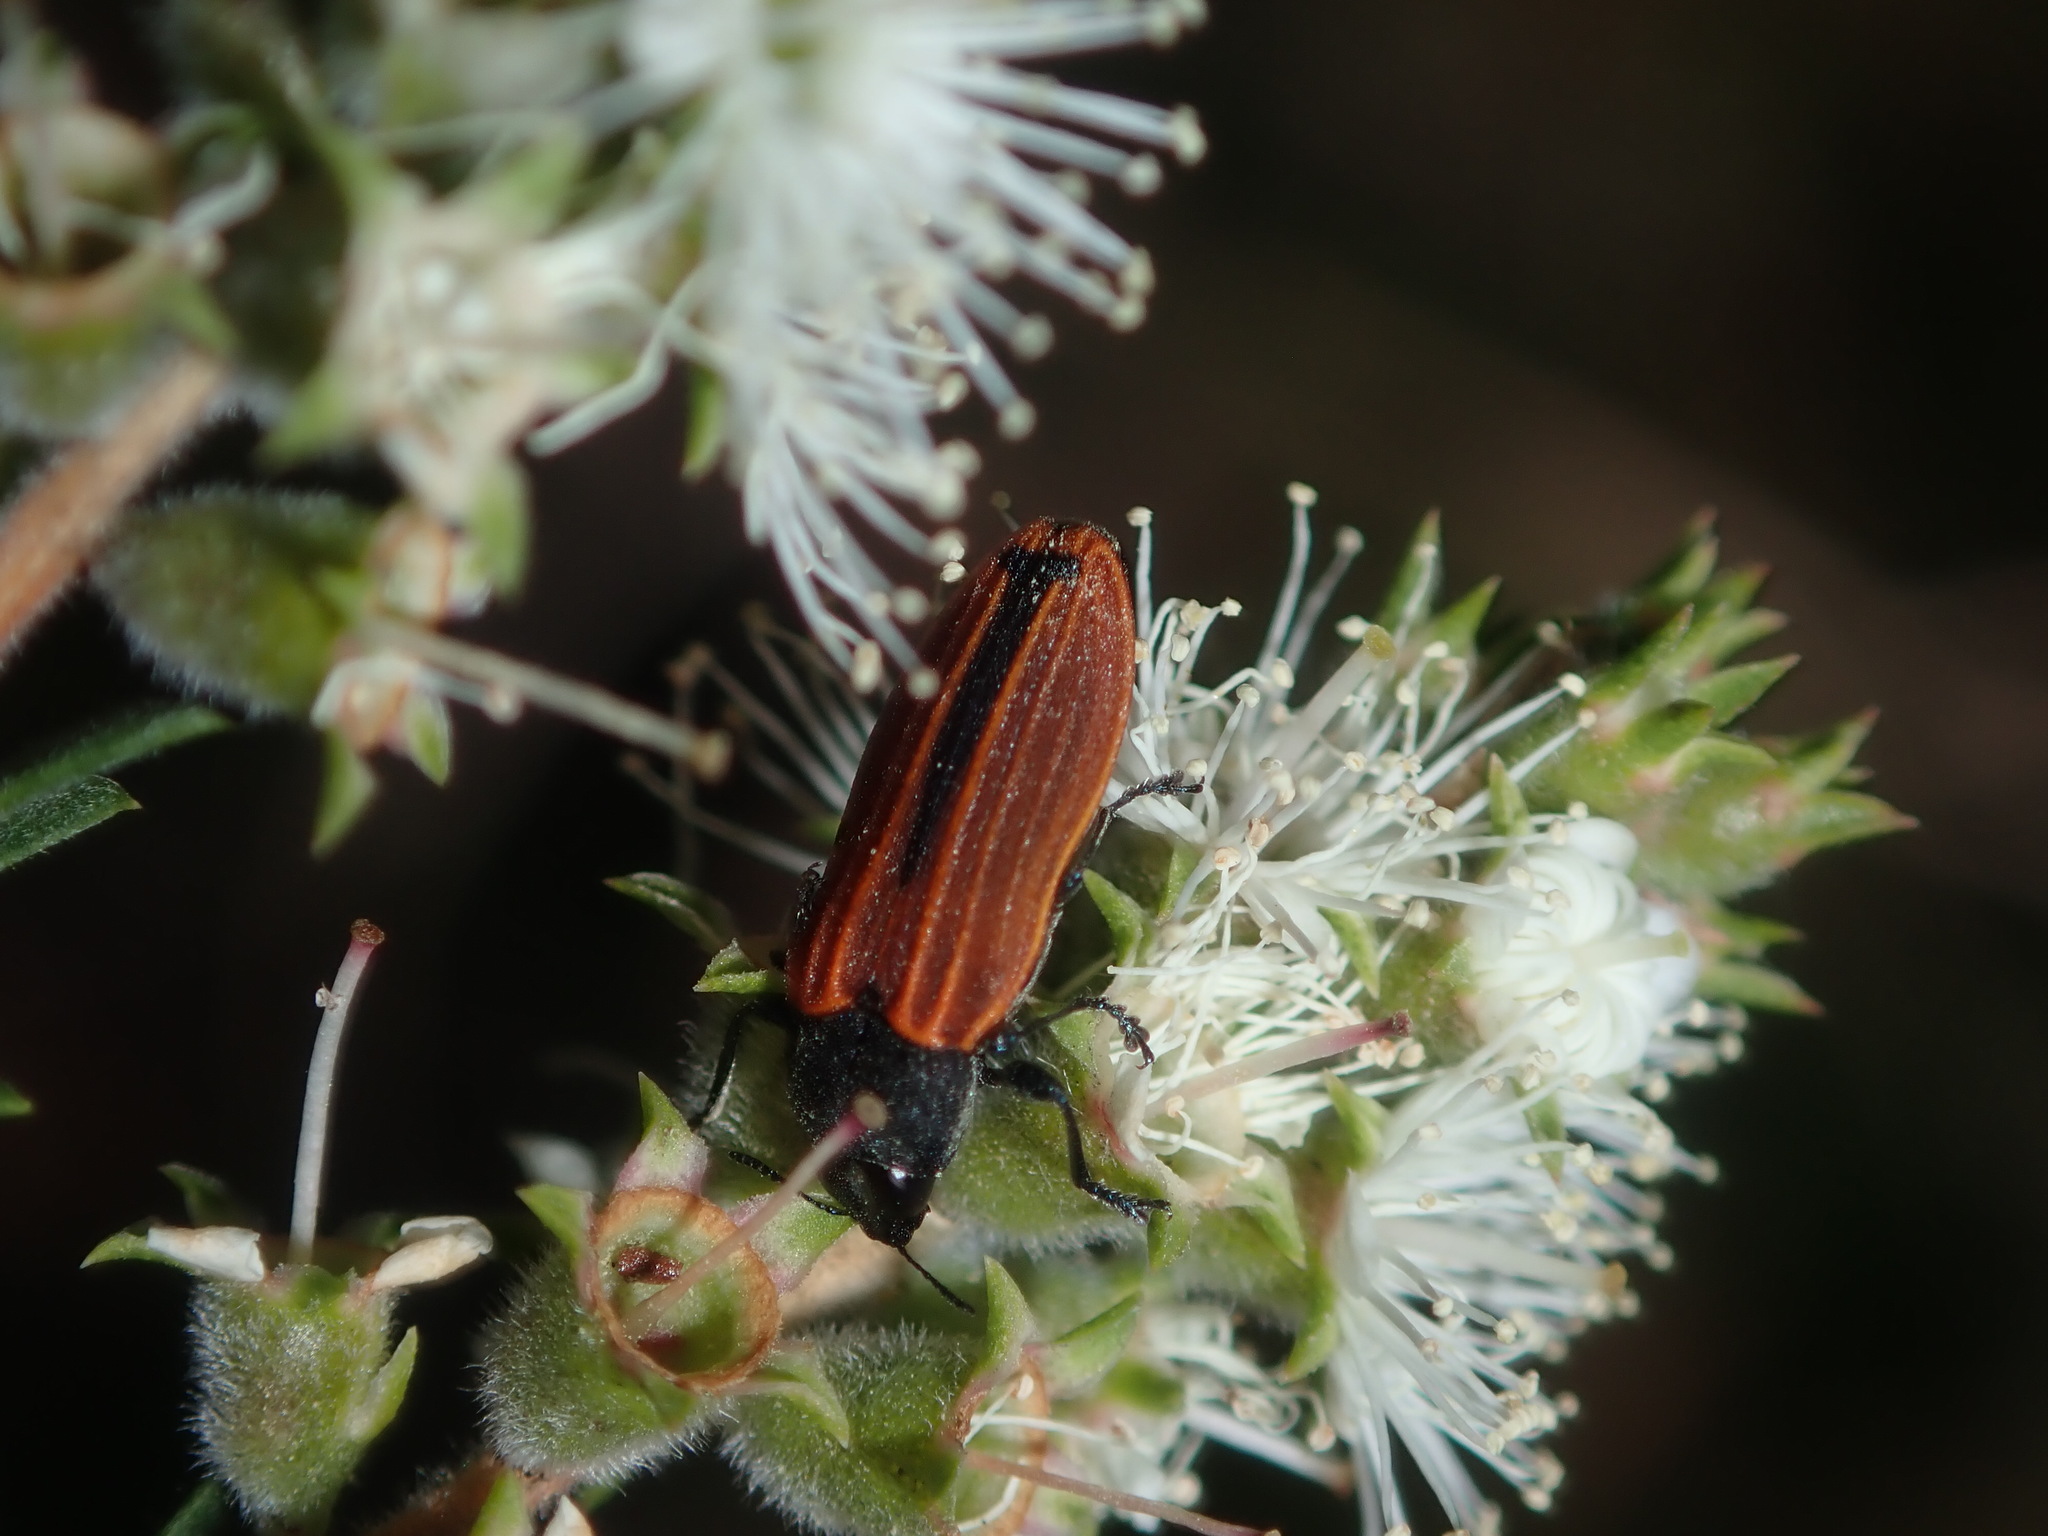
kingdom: Animalia
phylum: Arthropoda
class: Insecta
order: Coleoptera
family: Buprestidae
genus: Castiarina
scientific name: Castiarina erythroptera
